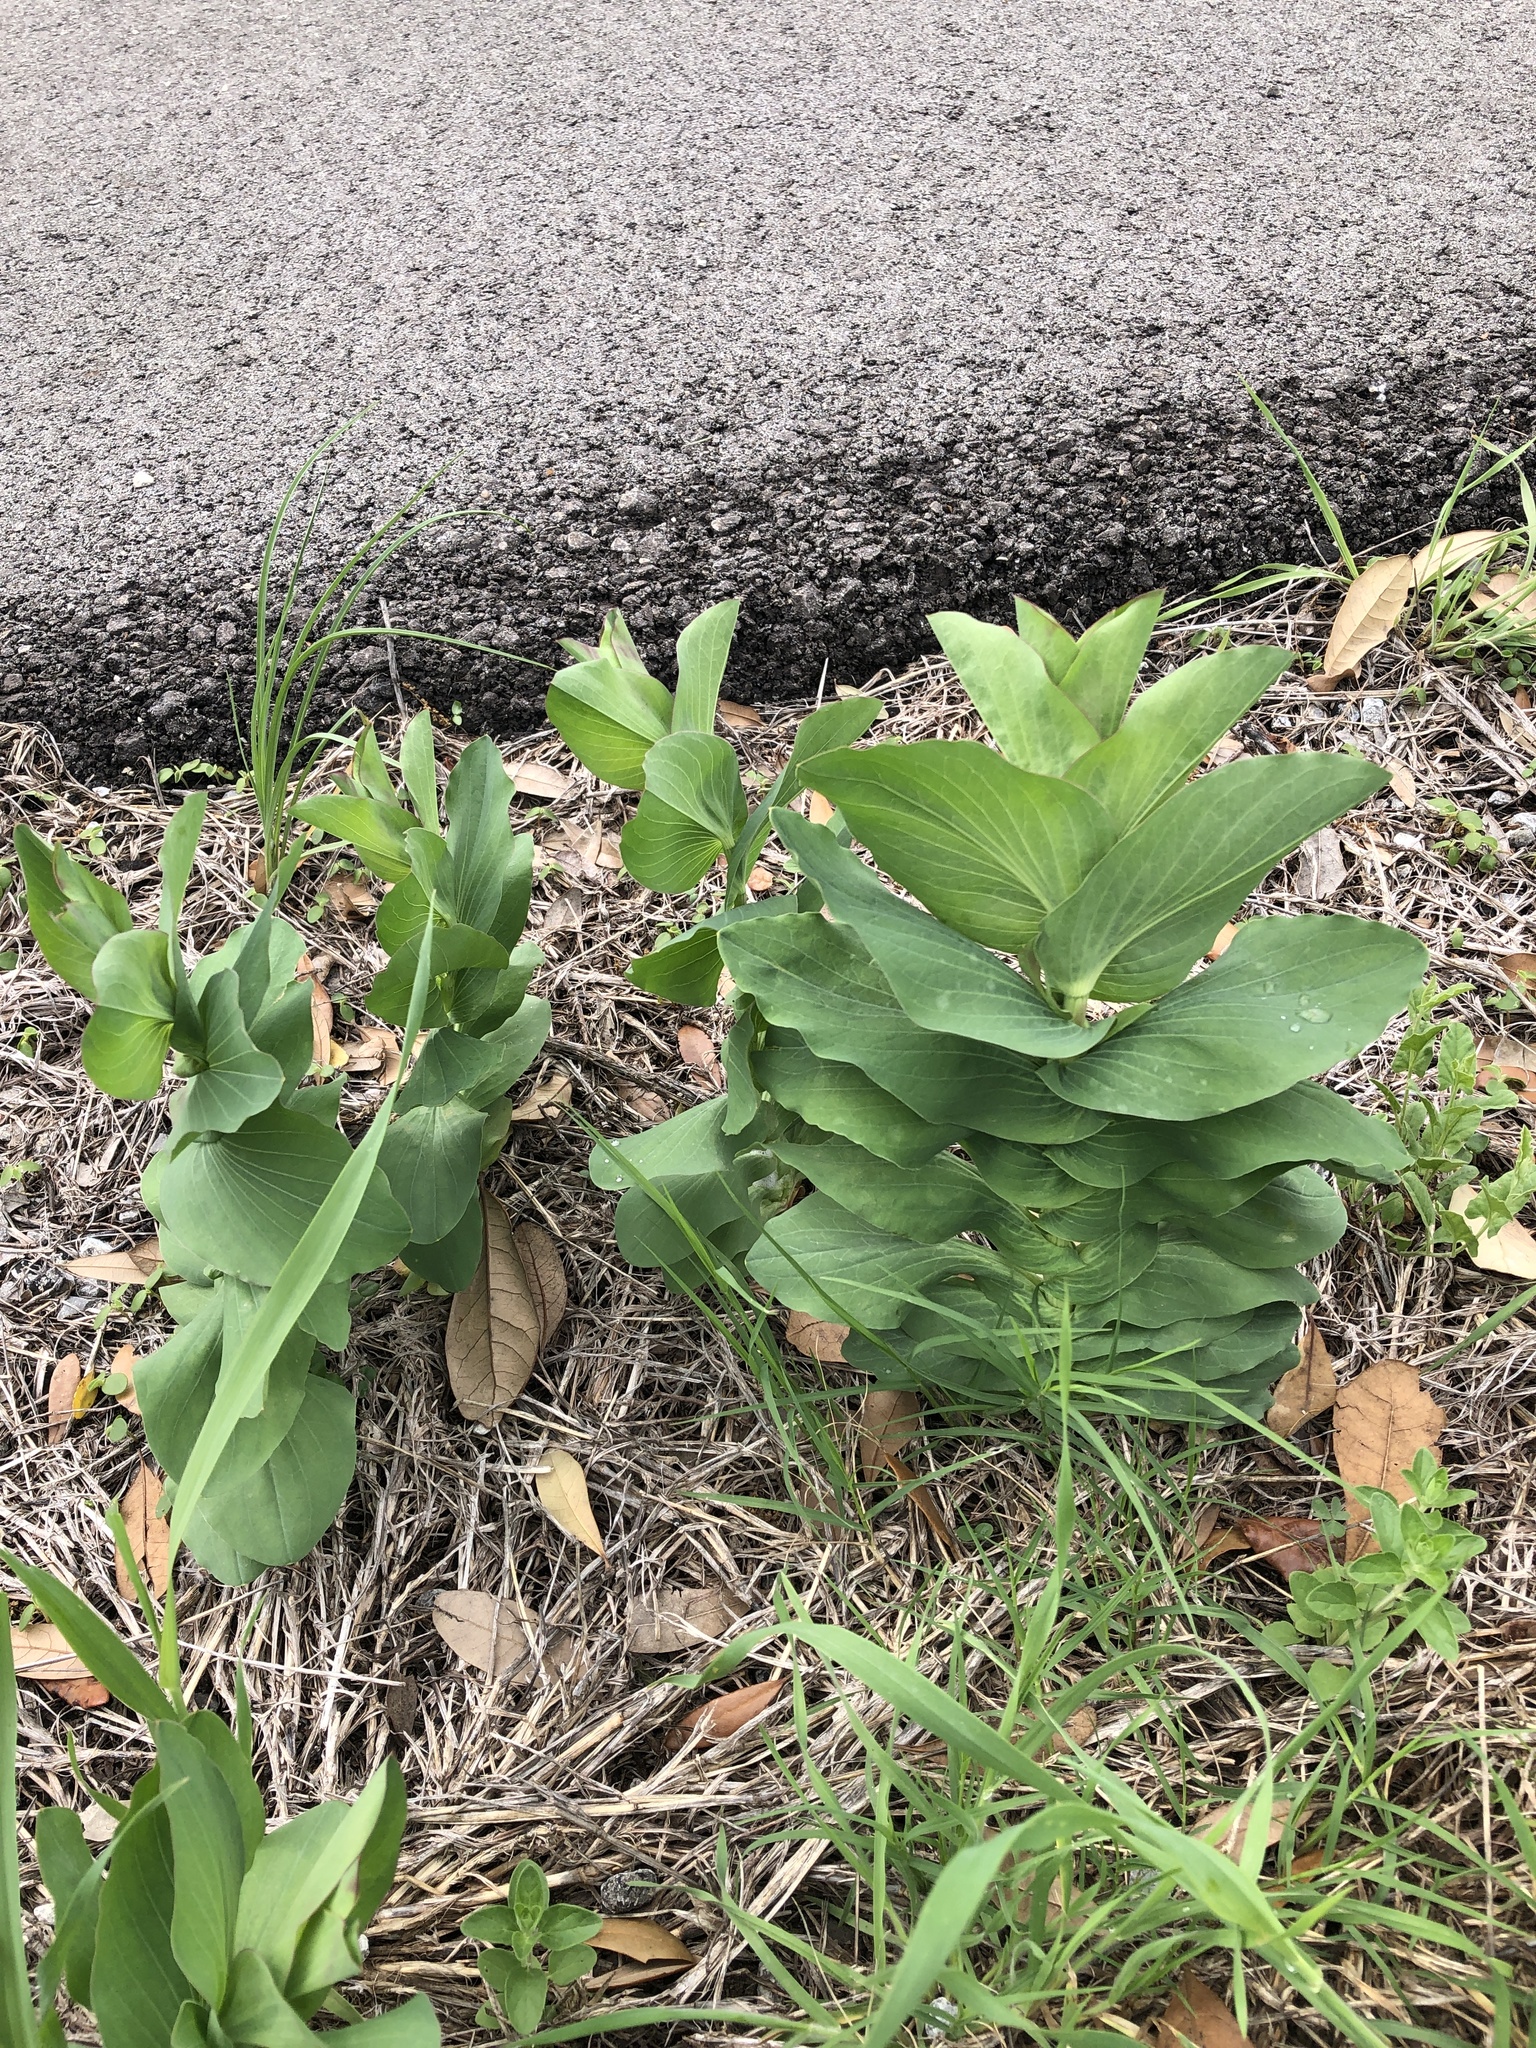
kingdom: Plantae
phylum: Tracheophyta
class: Magnoliopsida
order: Apiales
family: Apiaceae
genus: Bupleurum
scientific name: Bupleurum rotundifolium
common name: Thorow-wax
